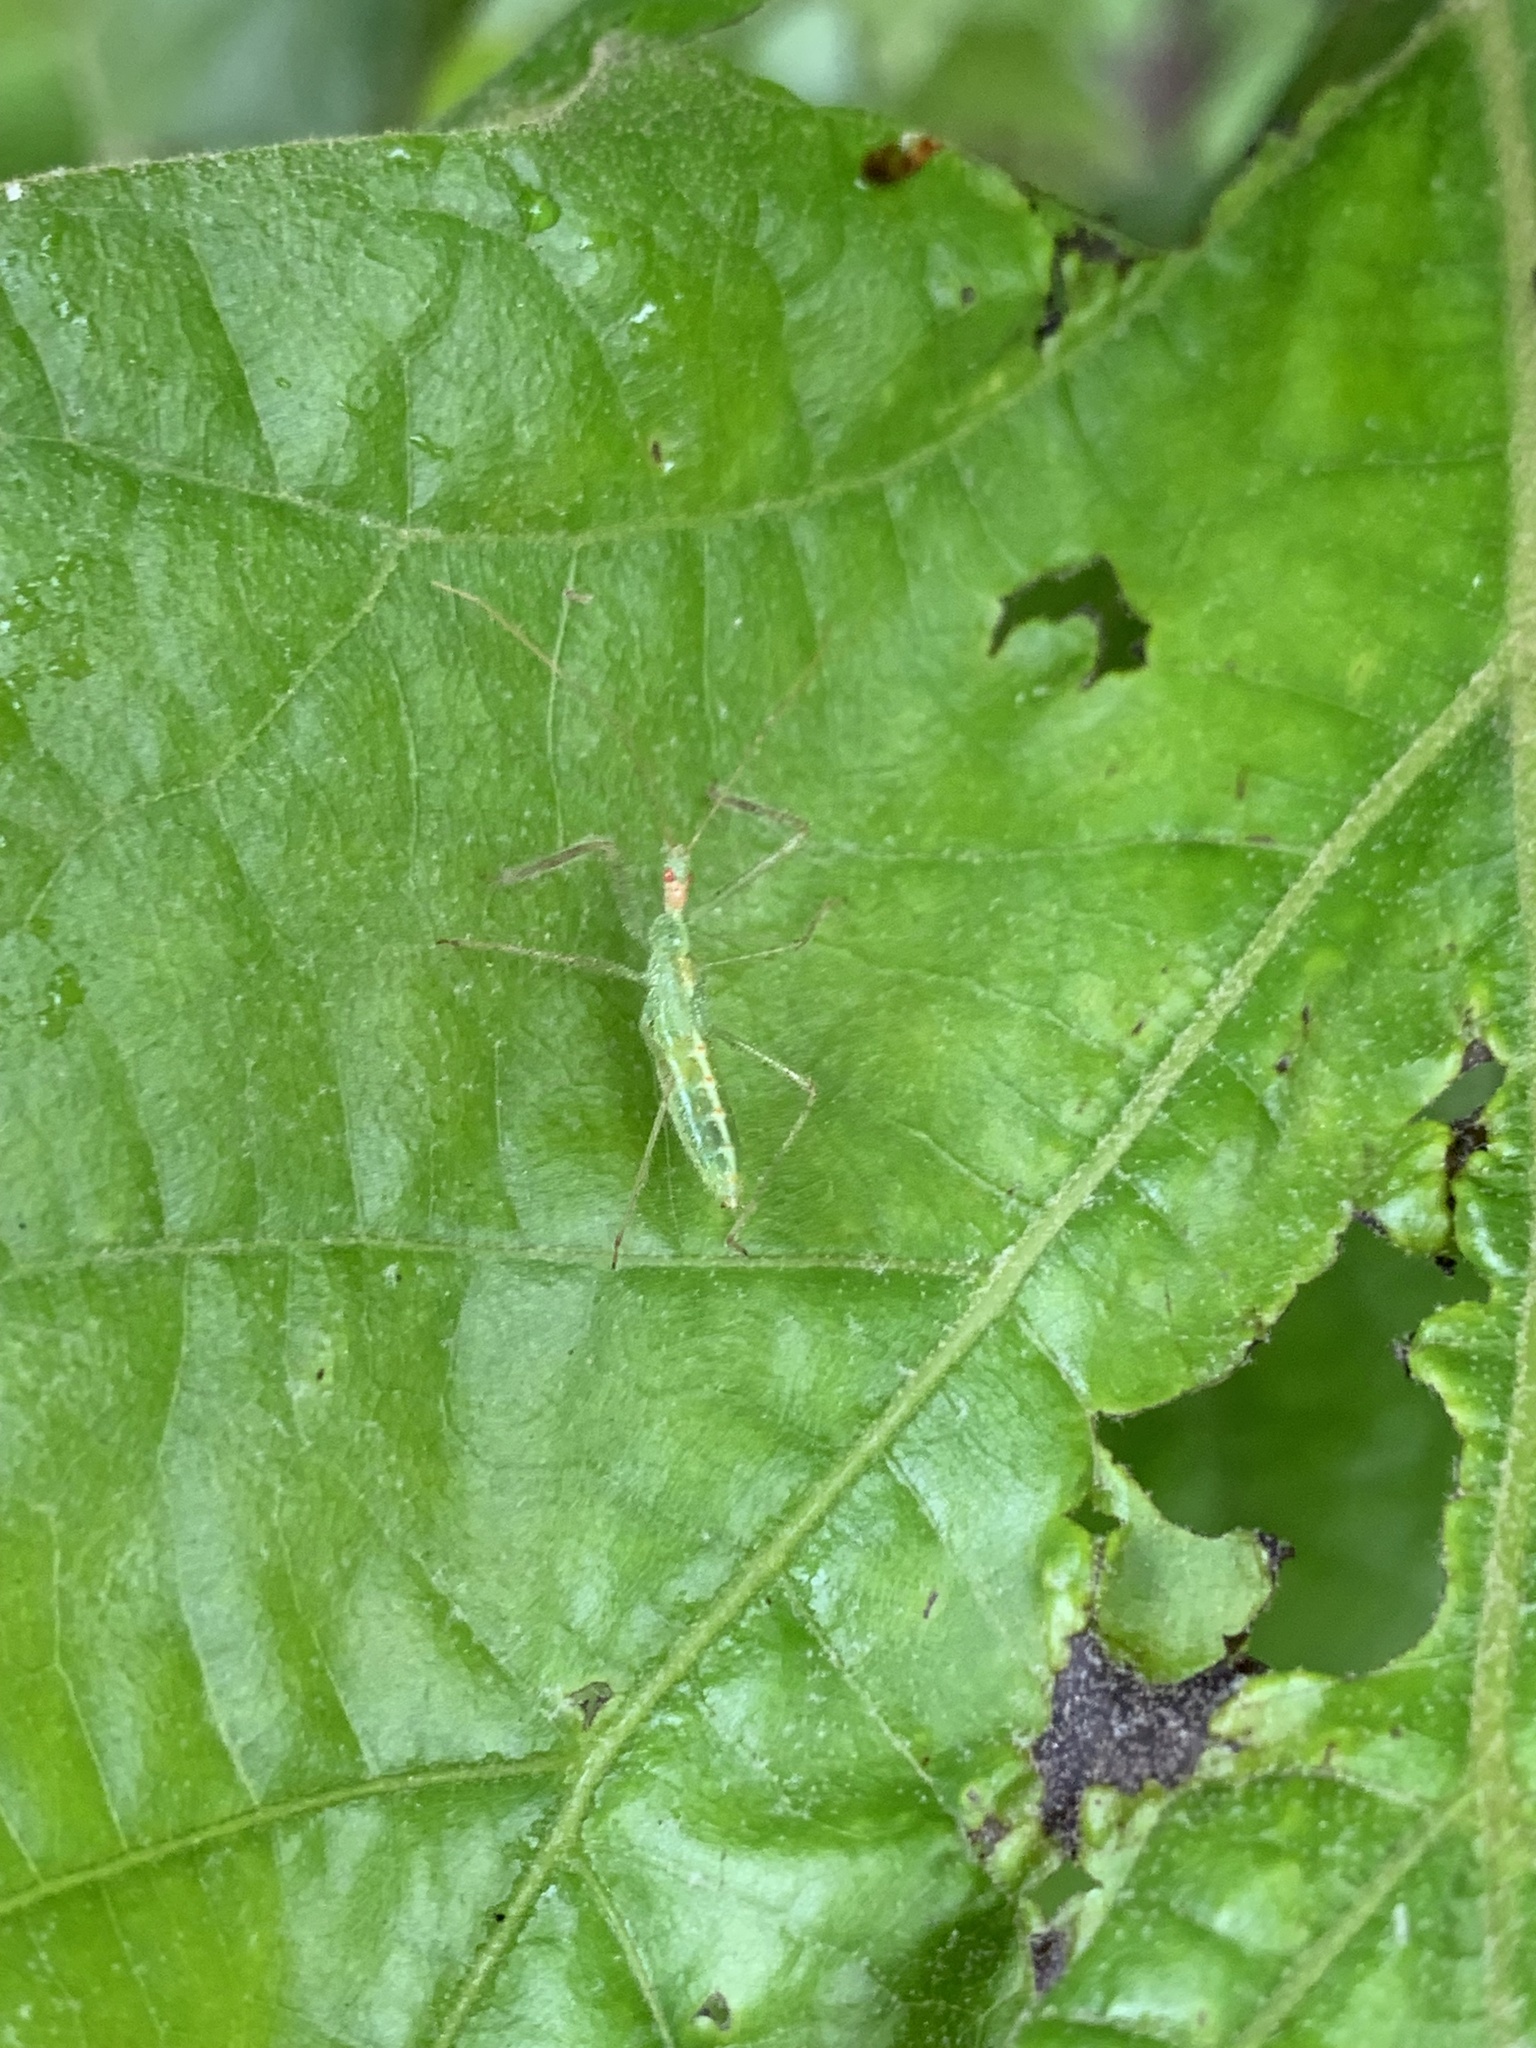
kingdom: Animalia
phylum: Arthropoda
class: Insecta
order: Hemiptera
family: Reduviidae
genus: Zelus
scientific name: Zelus luridus
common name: Pale green assassin bug
